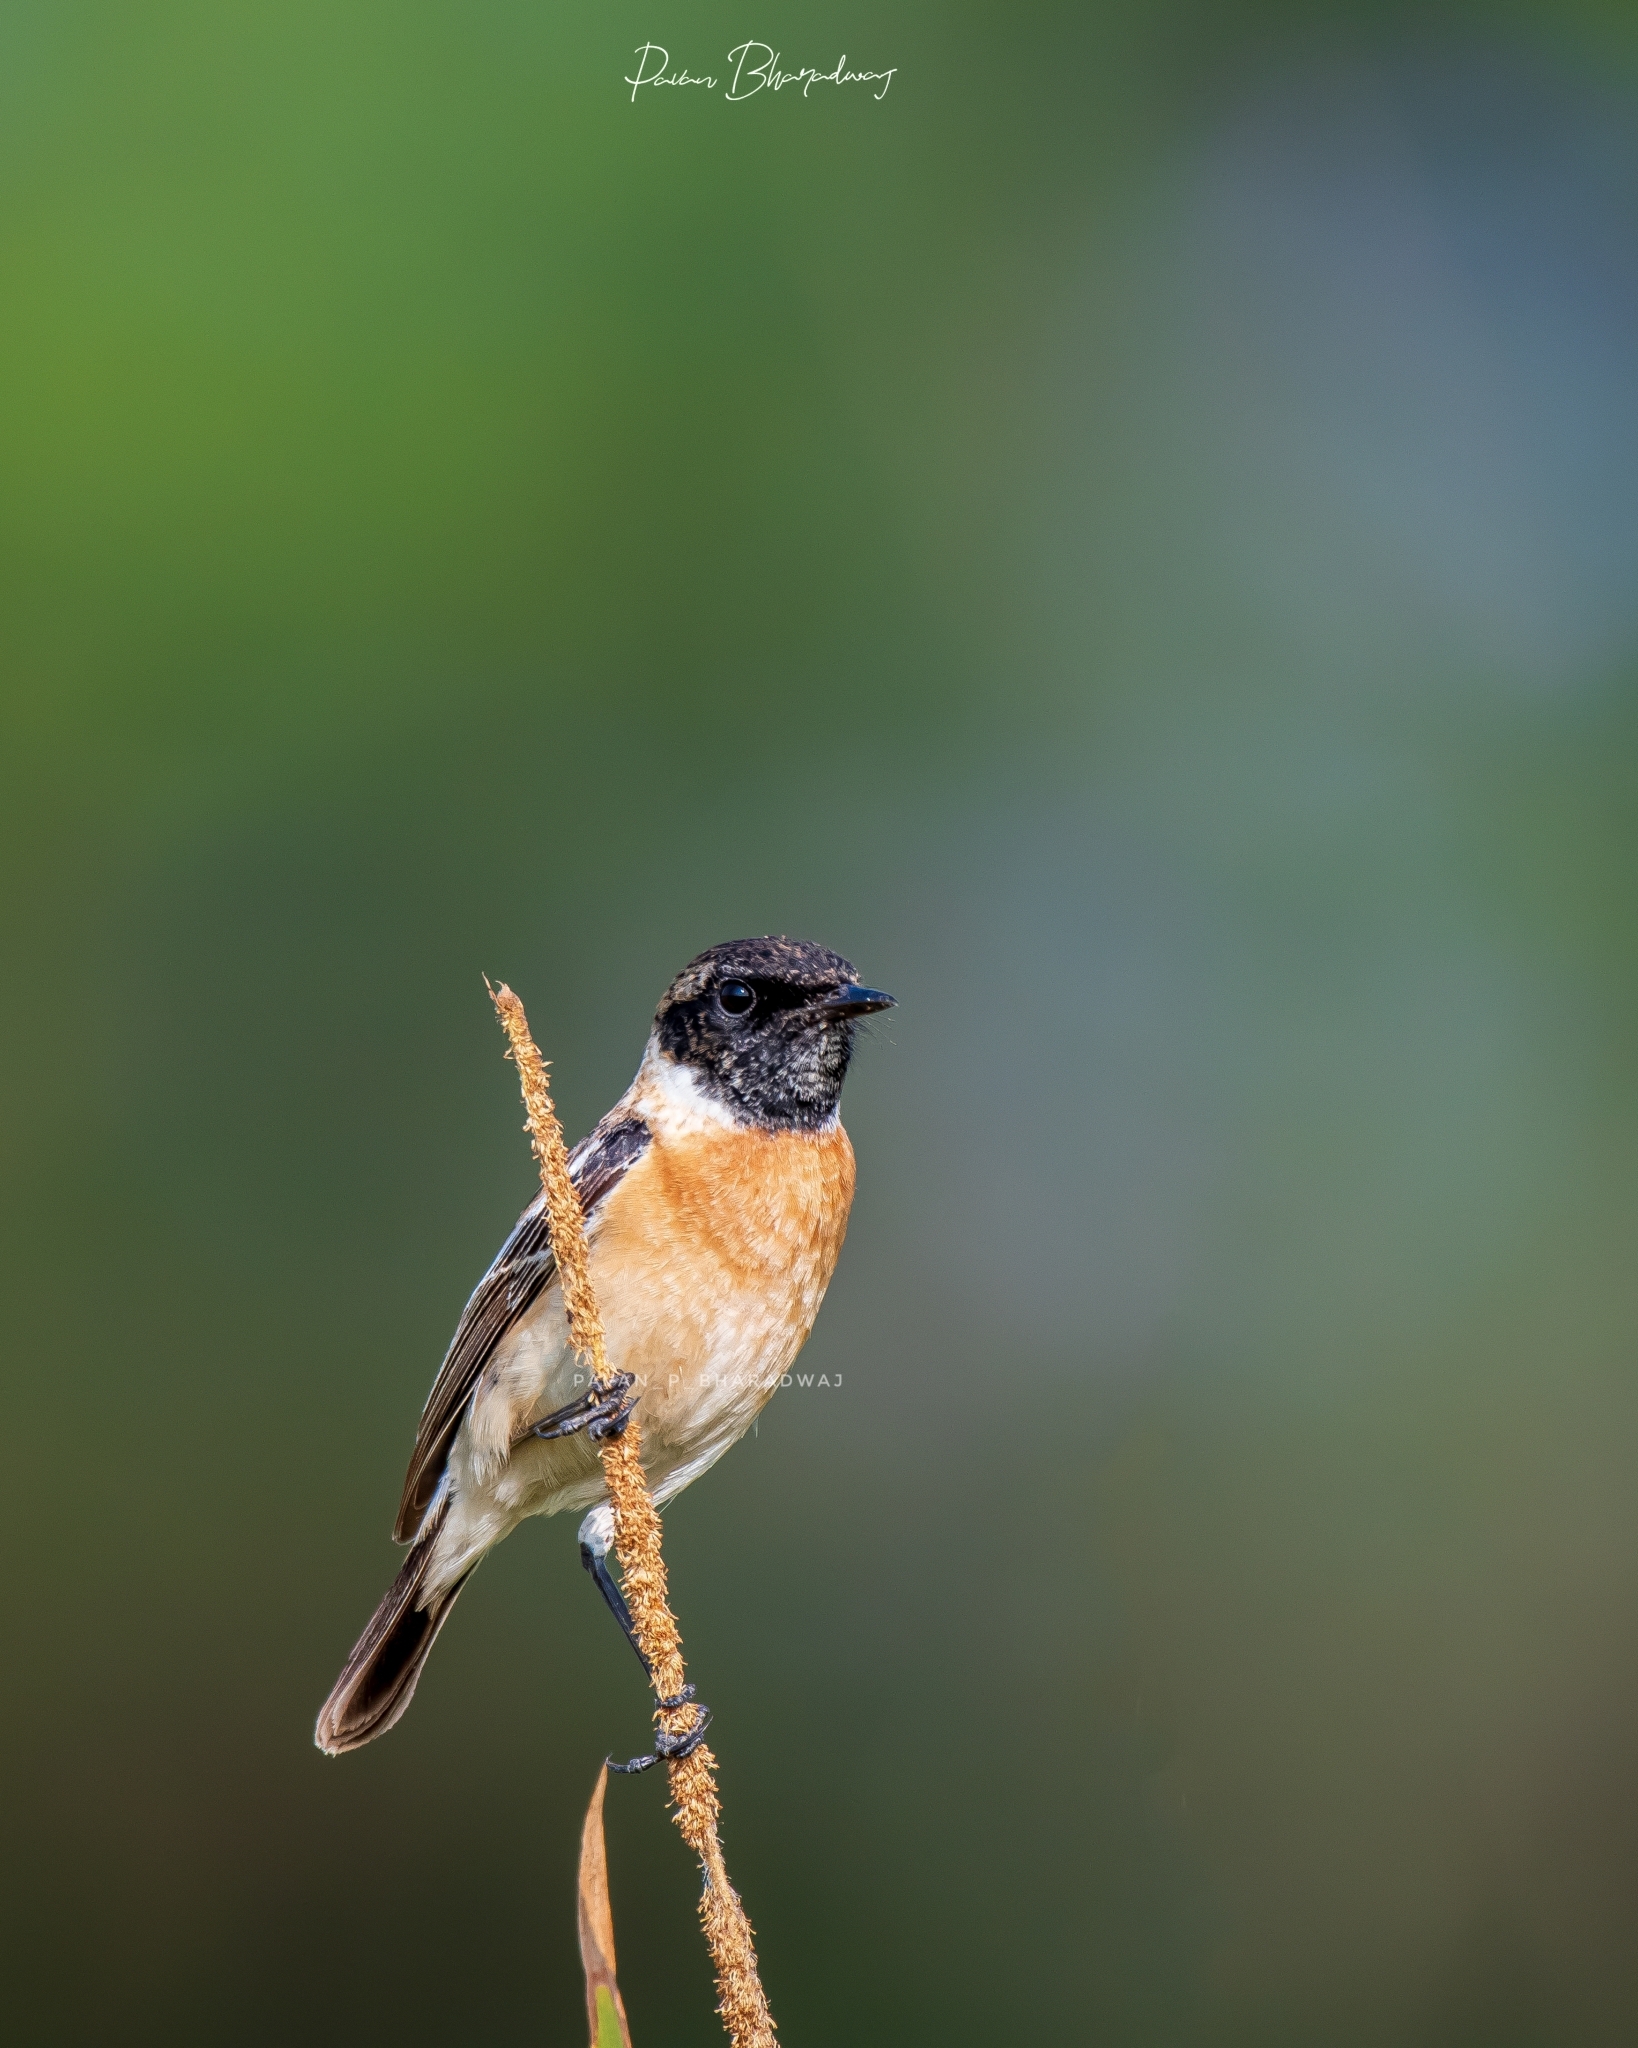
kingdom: Animalia
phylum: Chordata
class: Aves
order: Passeriformes
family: Muscicapidae
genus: Saxicola
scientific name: Saxicola maurus
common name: Siberian stonechat
